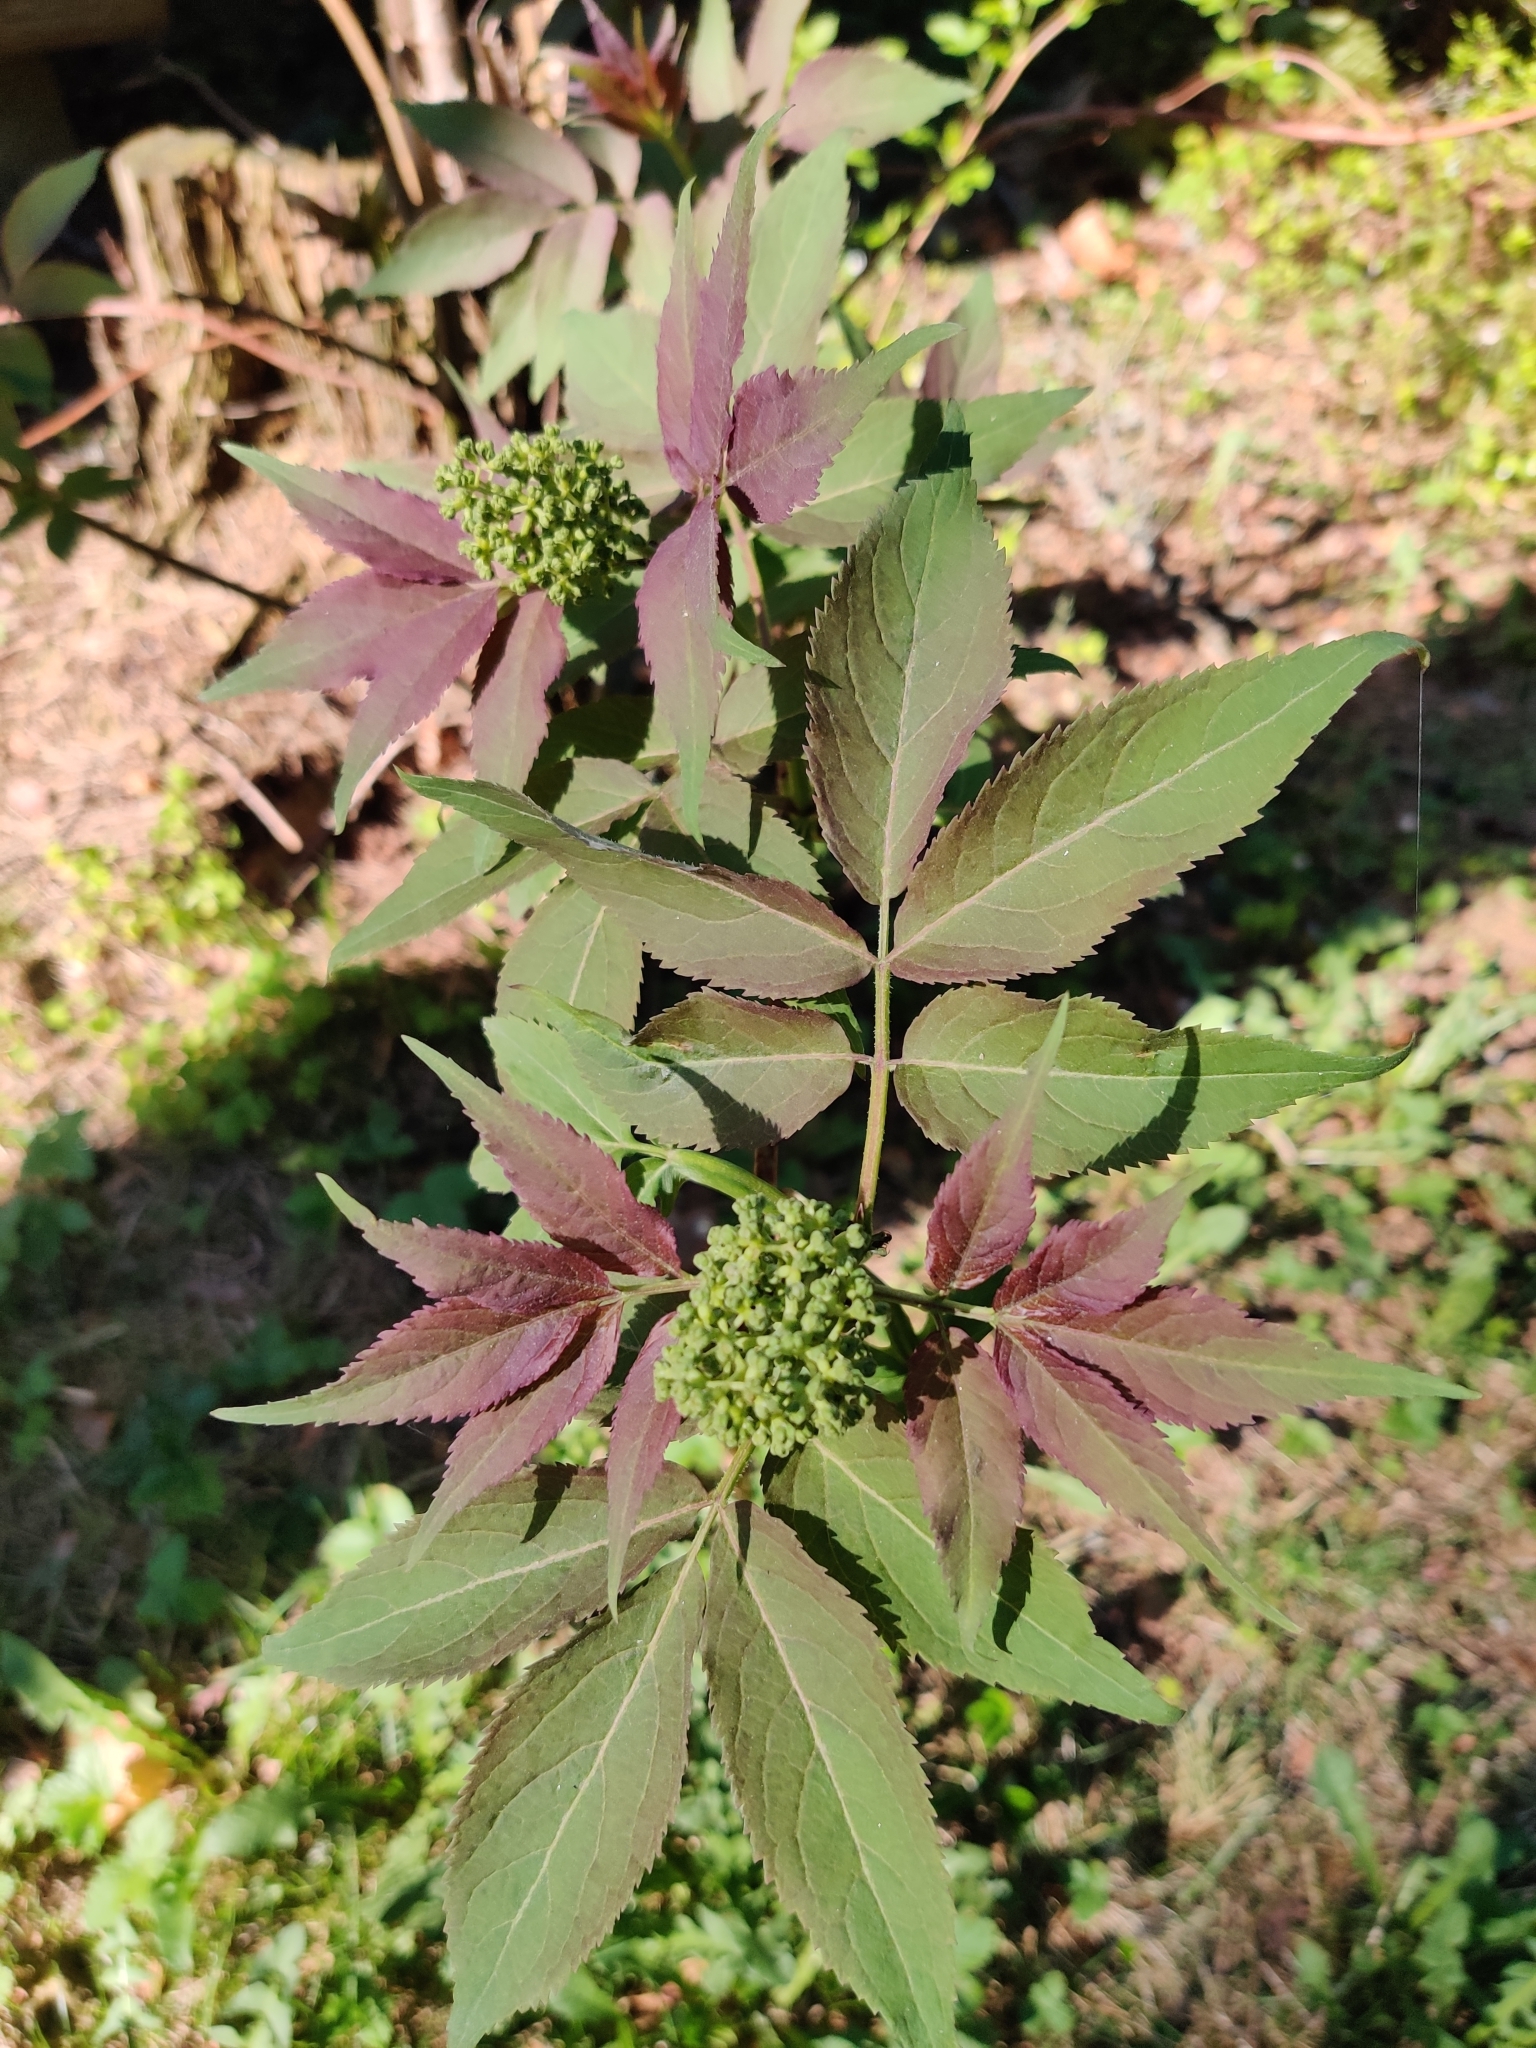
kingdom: Plantae
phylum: Tracheophyta
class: Magnoliopsida
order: Dipsacales
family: Viburnaceae
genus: Sambucus
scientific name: Sambucus racemosa
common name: Red-berried elder
